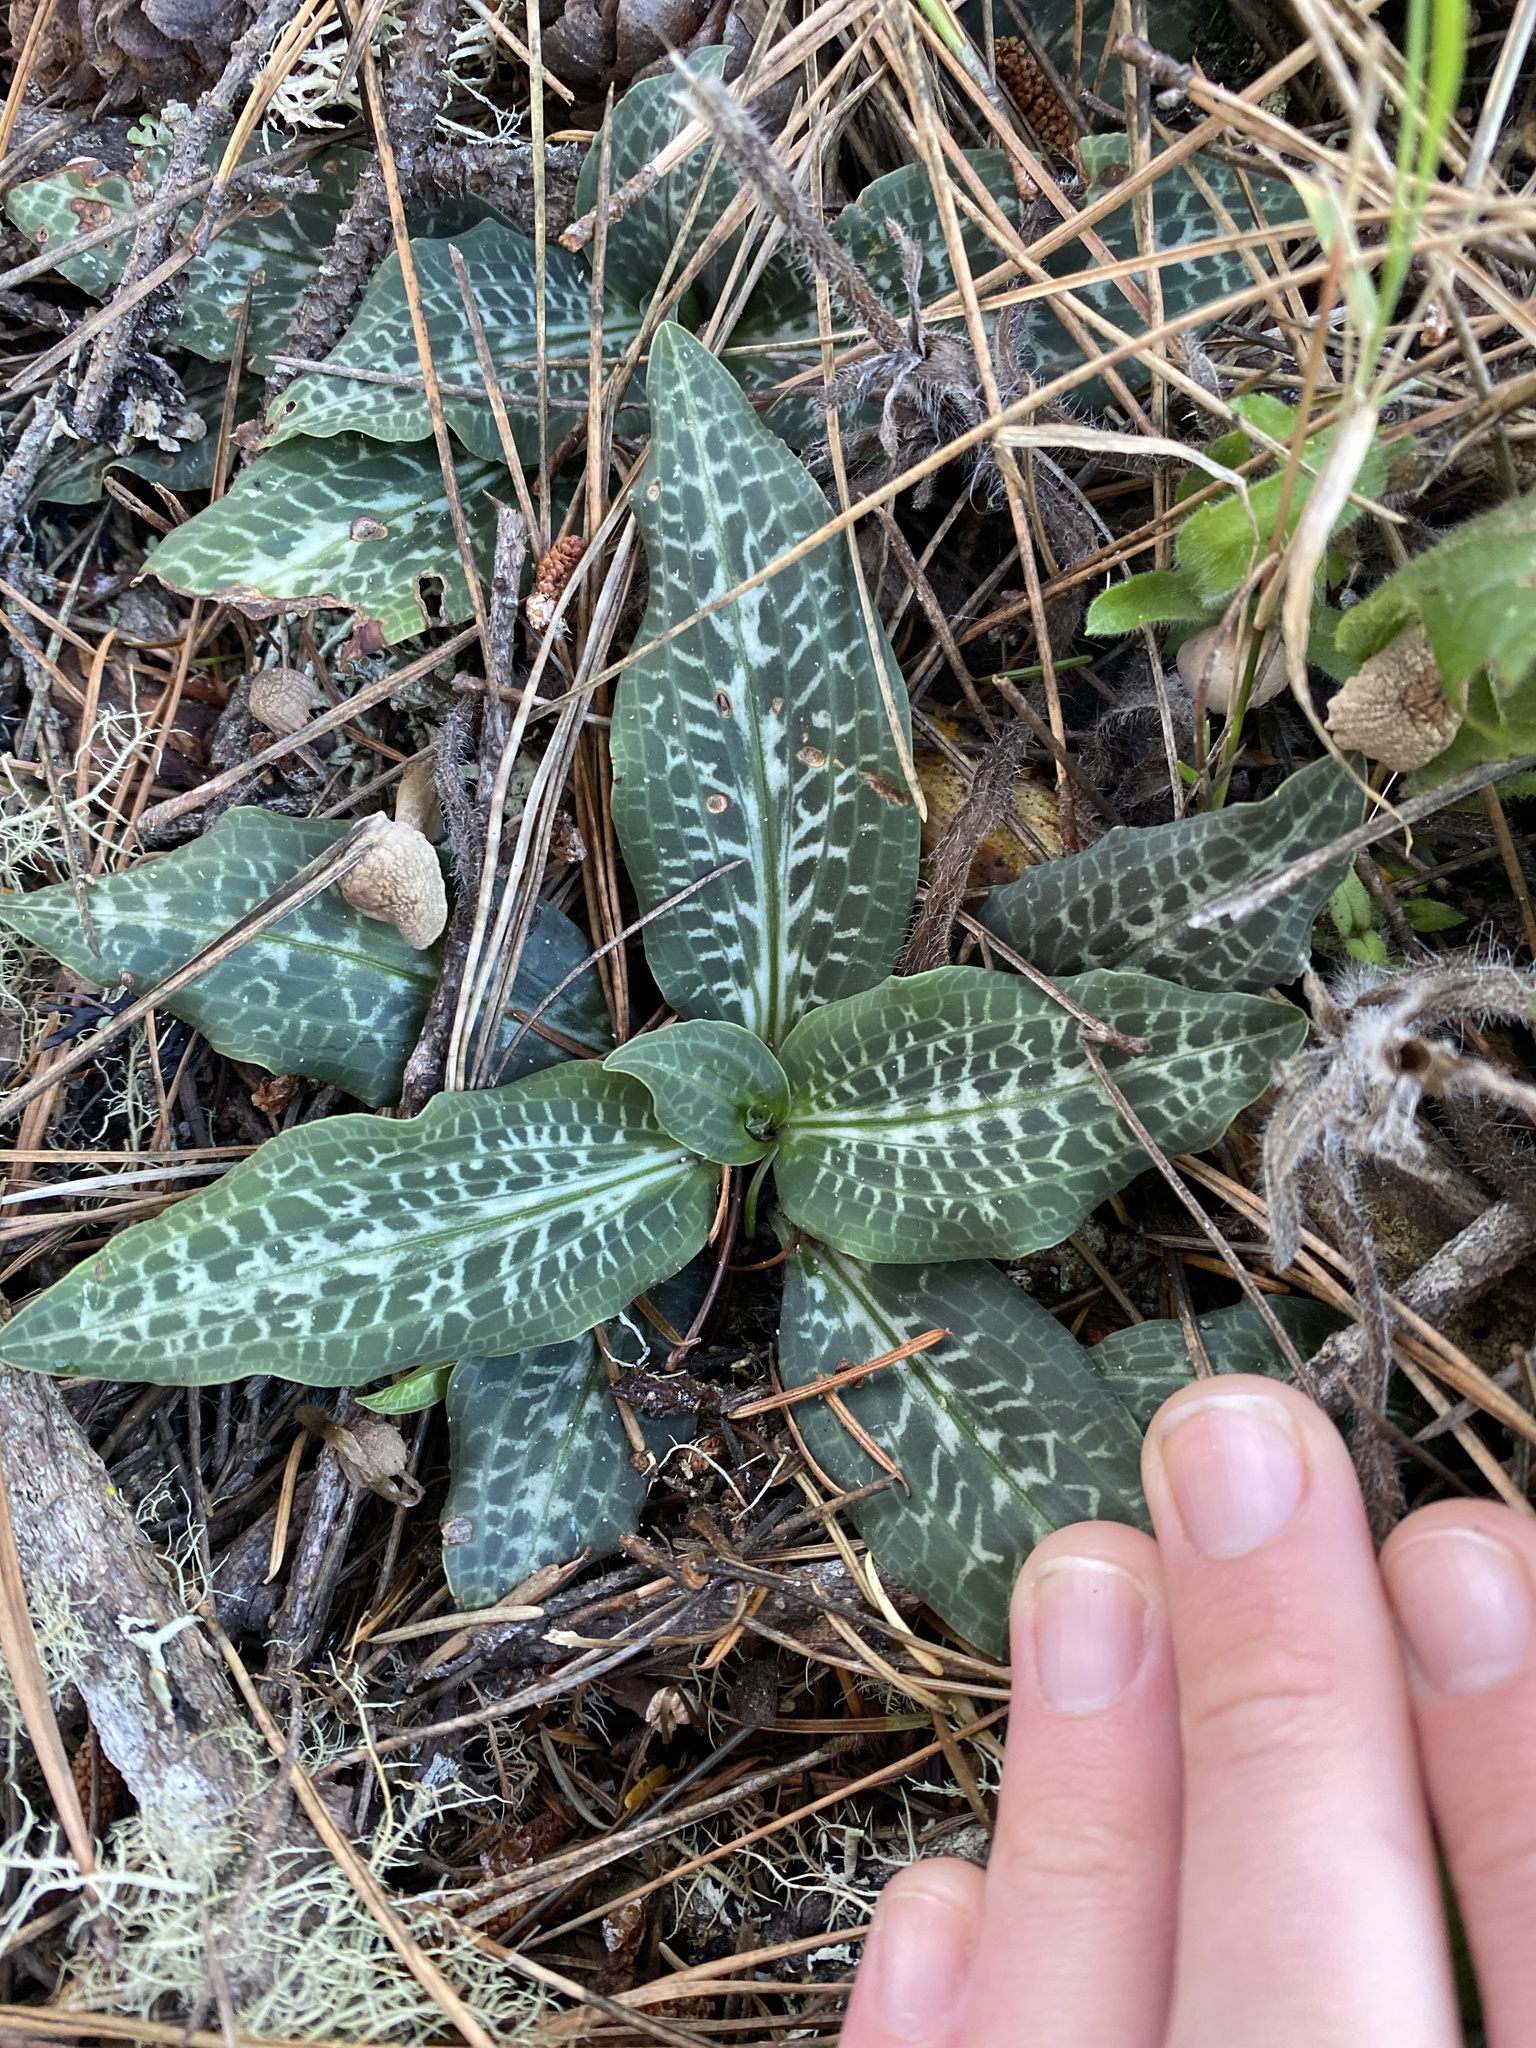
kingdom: Plantae
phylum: Tracheophyta
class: Liliopsida
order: Asparagales
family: Orchidaceae
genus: Goodyera
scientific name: Goodyera oblongifolia
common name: Giant rattlesnake-plantain
